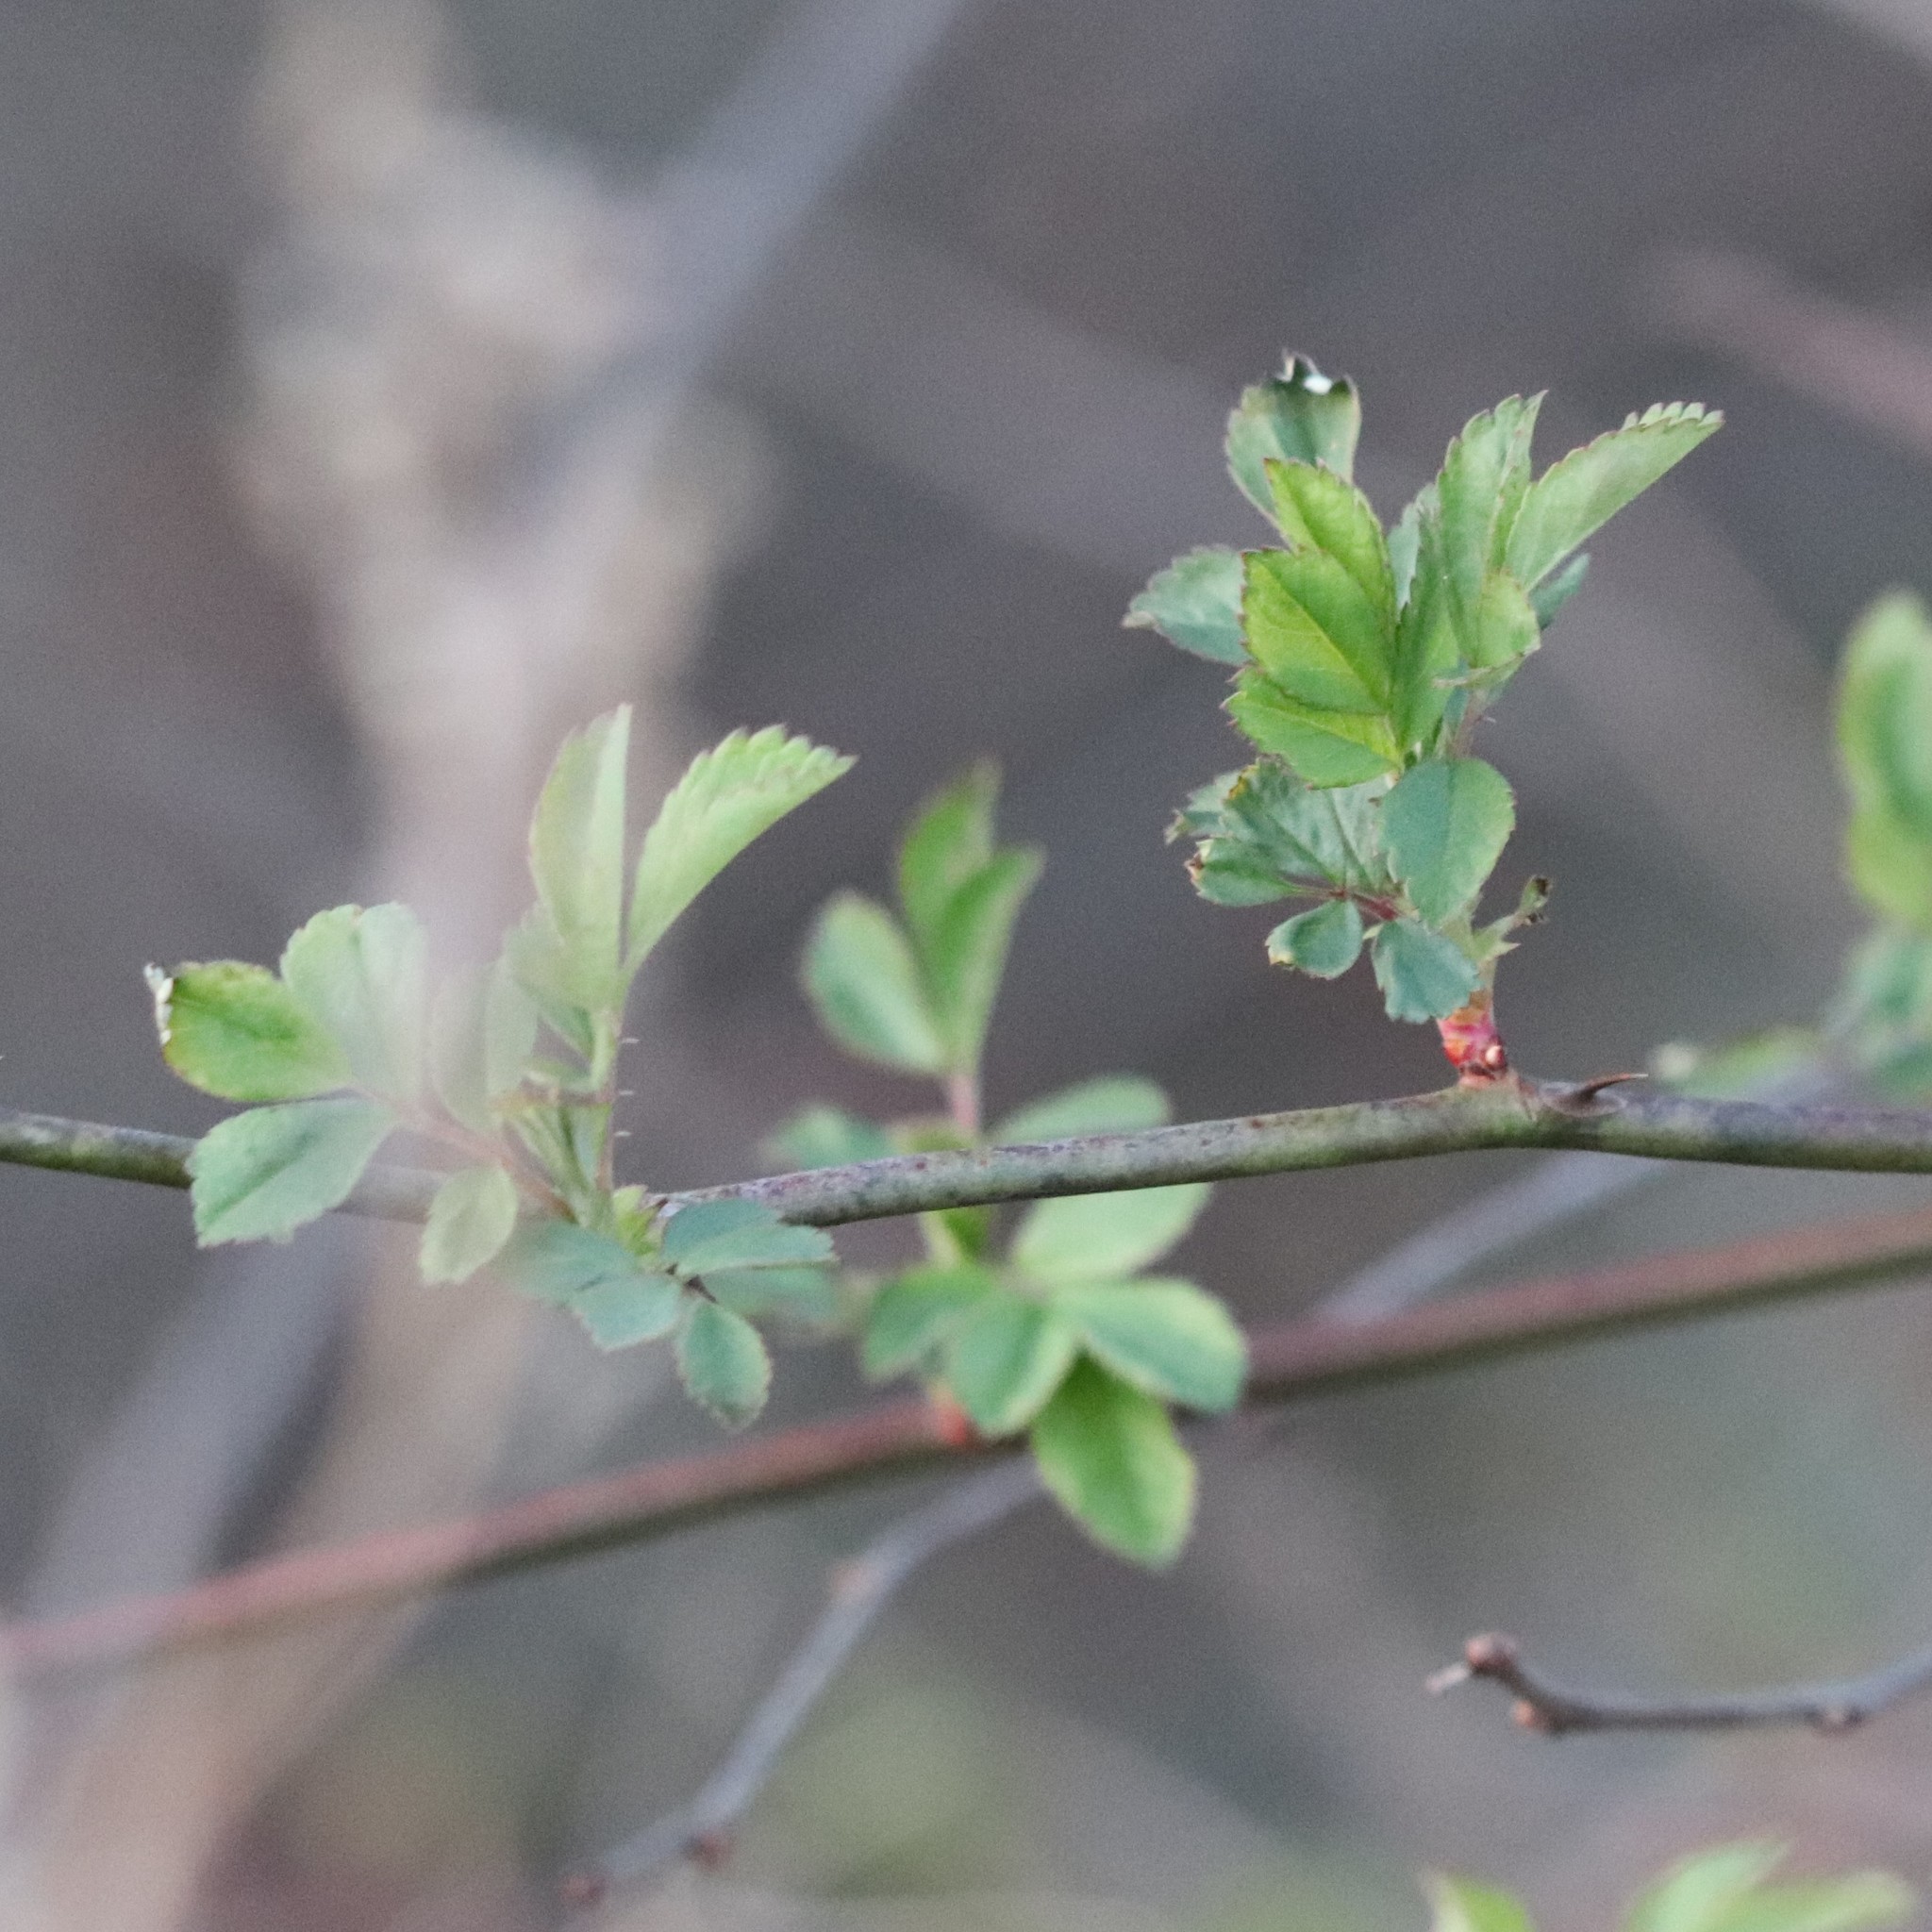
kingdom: Plantae
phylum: Tracheophyta
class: Magnoliopsida
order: Rosales
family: Rosaceae
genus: Rosa
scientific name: Rosa multiflora
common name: Multiflora rose
